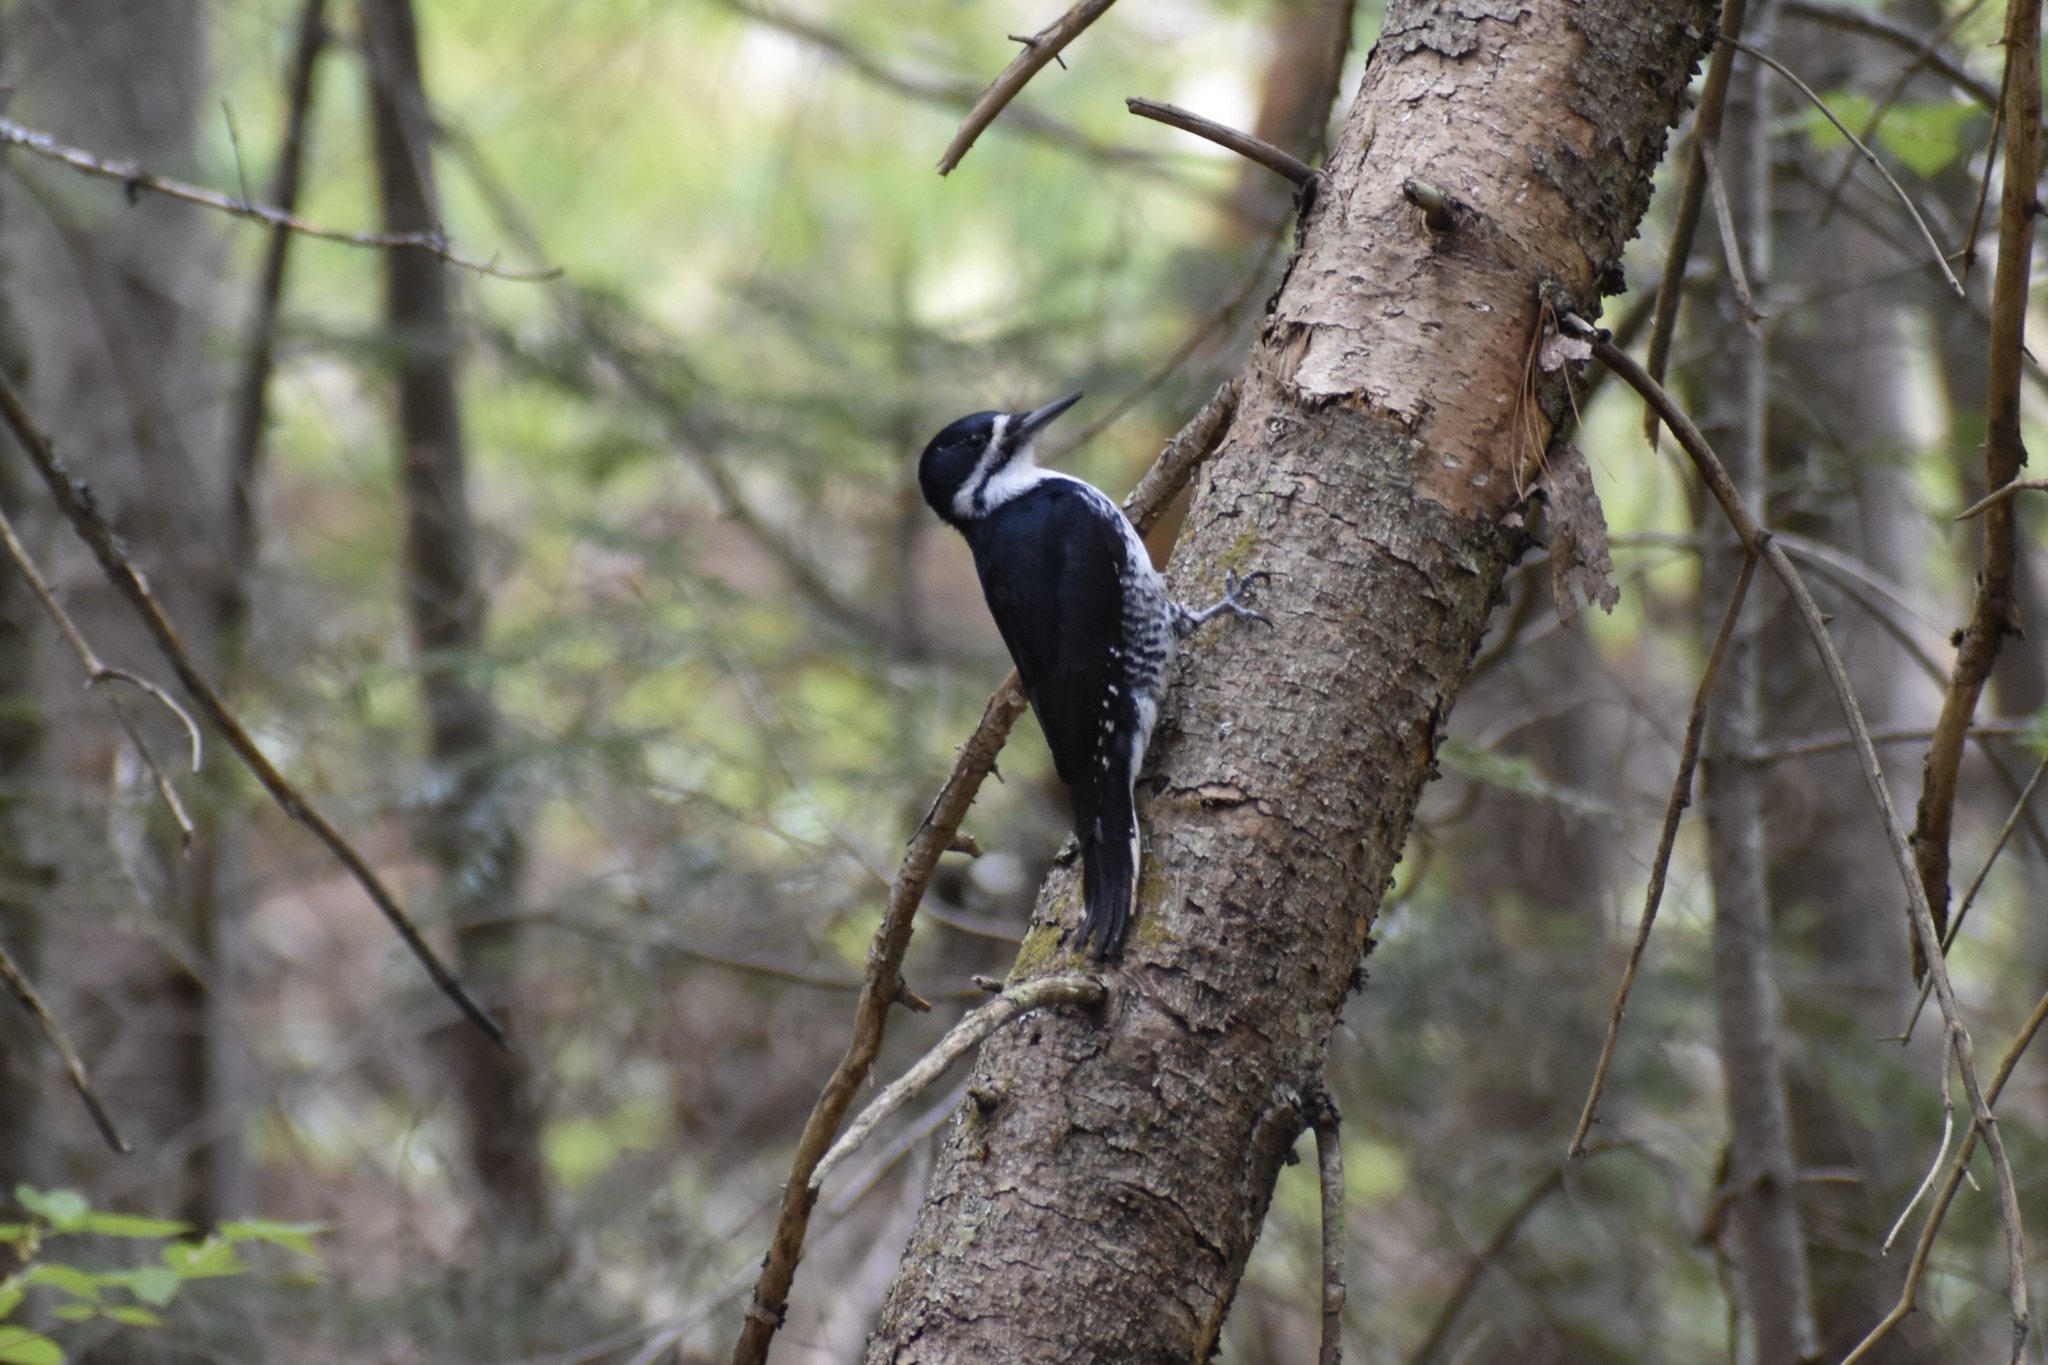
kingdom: Animalia
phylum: Chordata
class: Aves
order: Piciformes
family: Picidae
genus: Picoides
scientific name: Picoides arcticus
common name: Black-backed woodpecker
